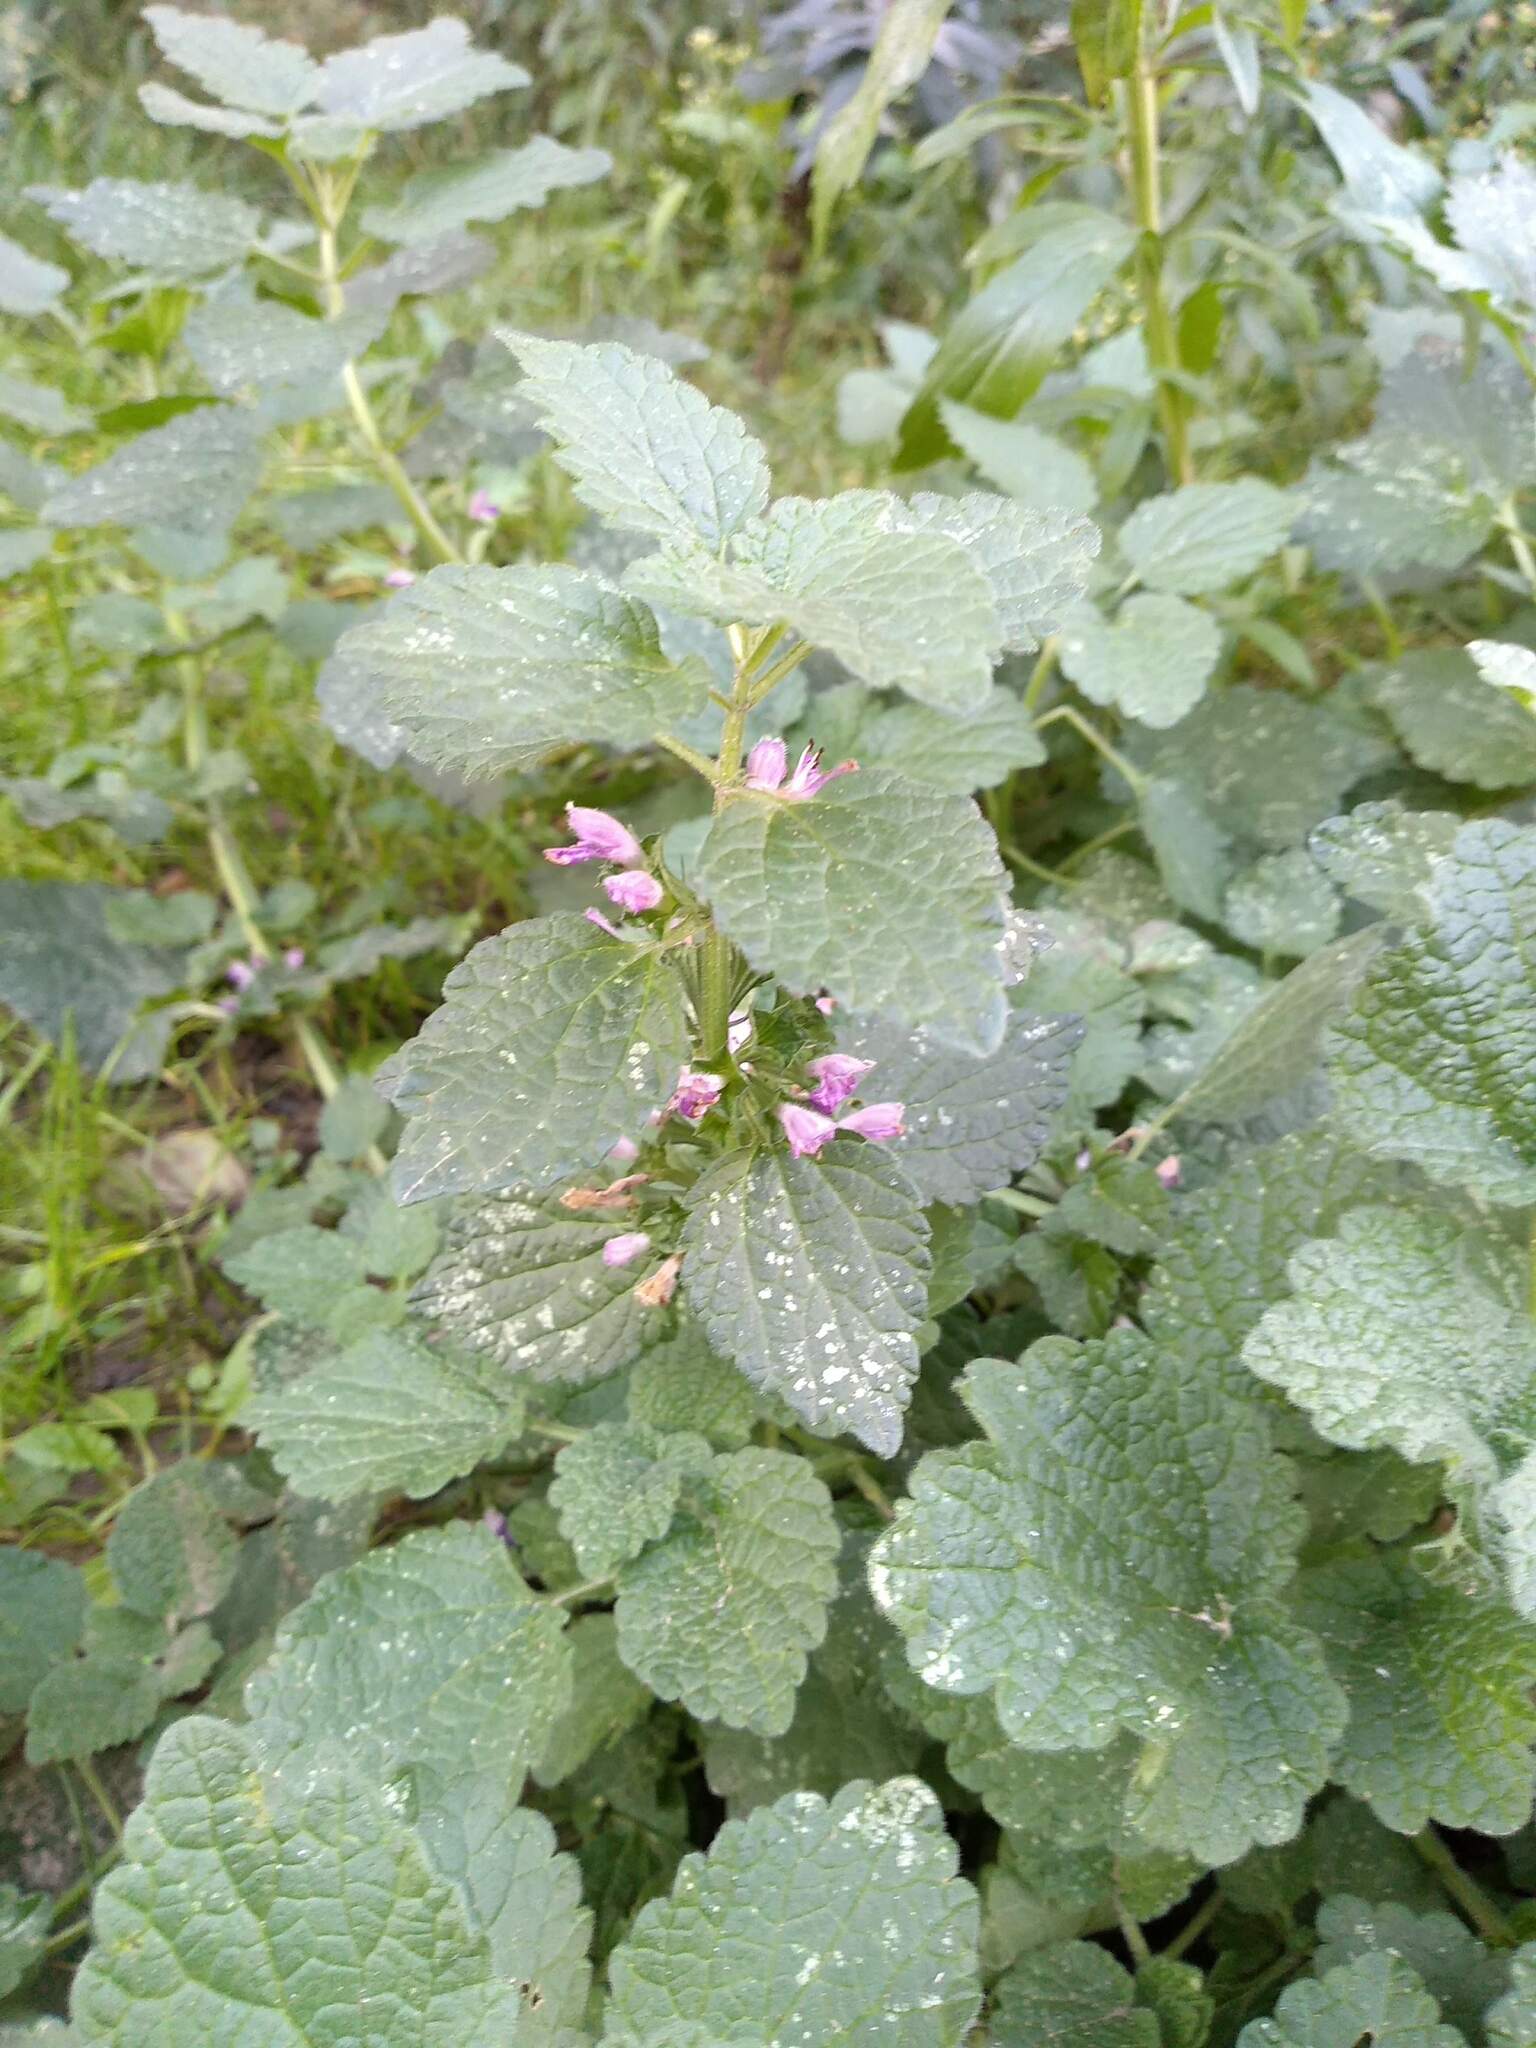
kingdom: Plantae
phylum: Tracheophyta
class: Magnoliopsida
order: Lamiales
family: Lamiaceae
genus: Ballota
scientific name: Ballota nigra
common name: Black horehound
